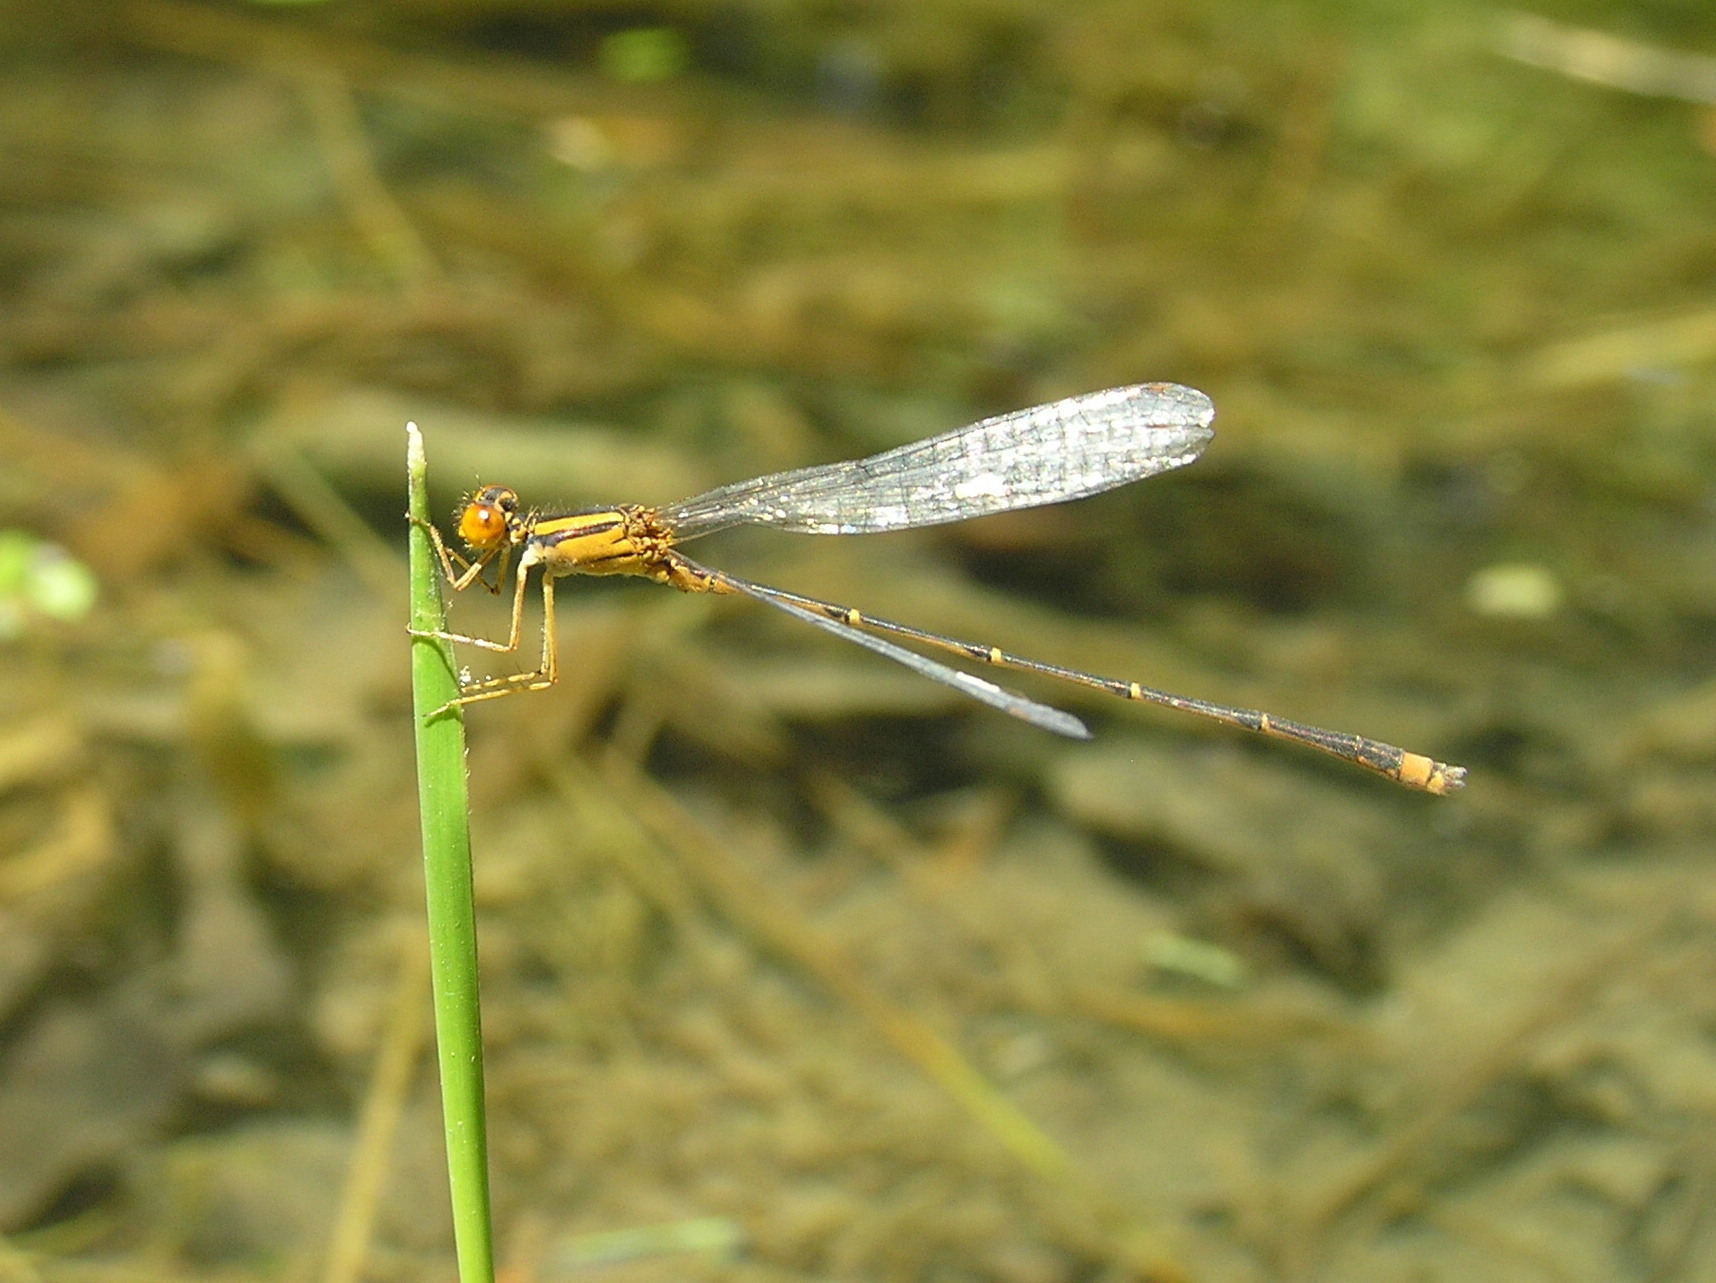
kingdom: Animalia
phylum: Arthropoda
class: Insecta
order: Odonata
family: Coenagrionidae
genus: Enallagma
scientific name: Enallagma signatum
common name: Orange bluet
